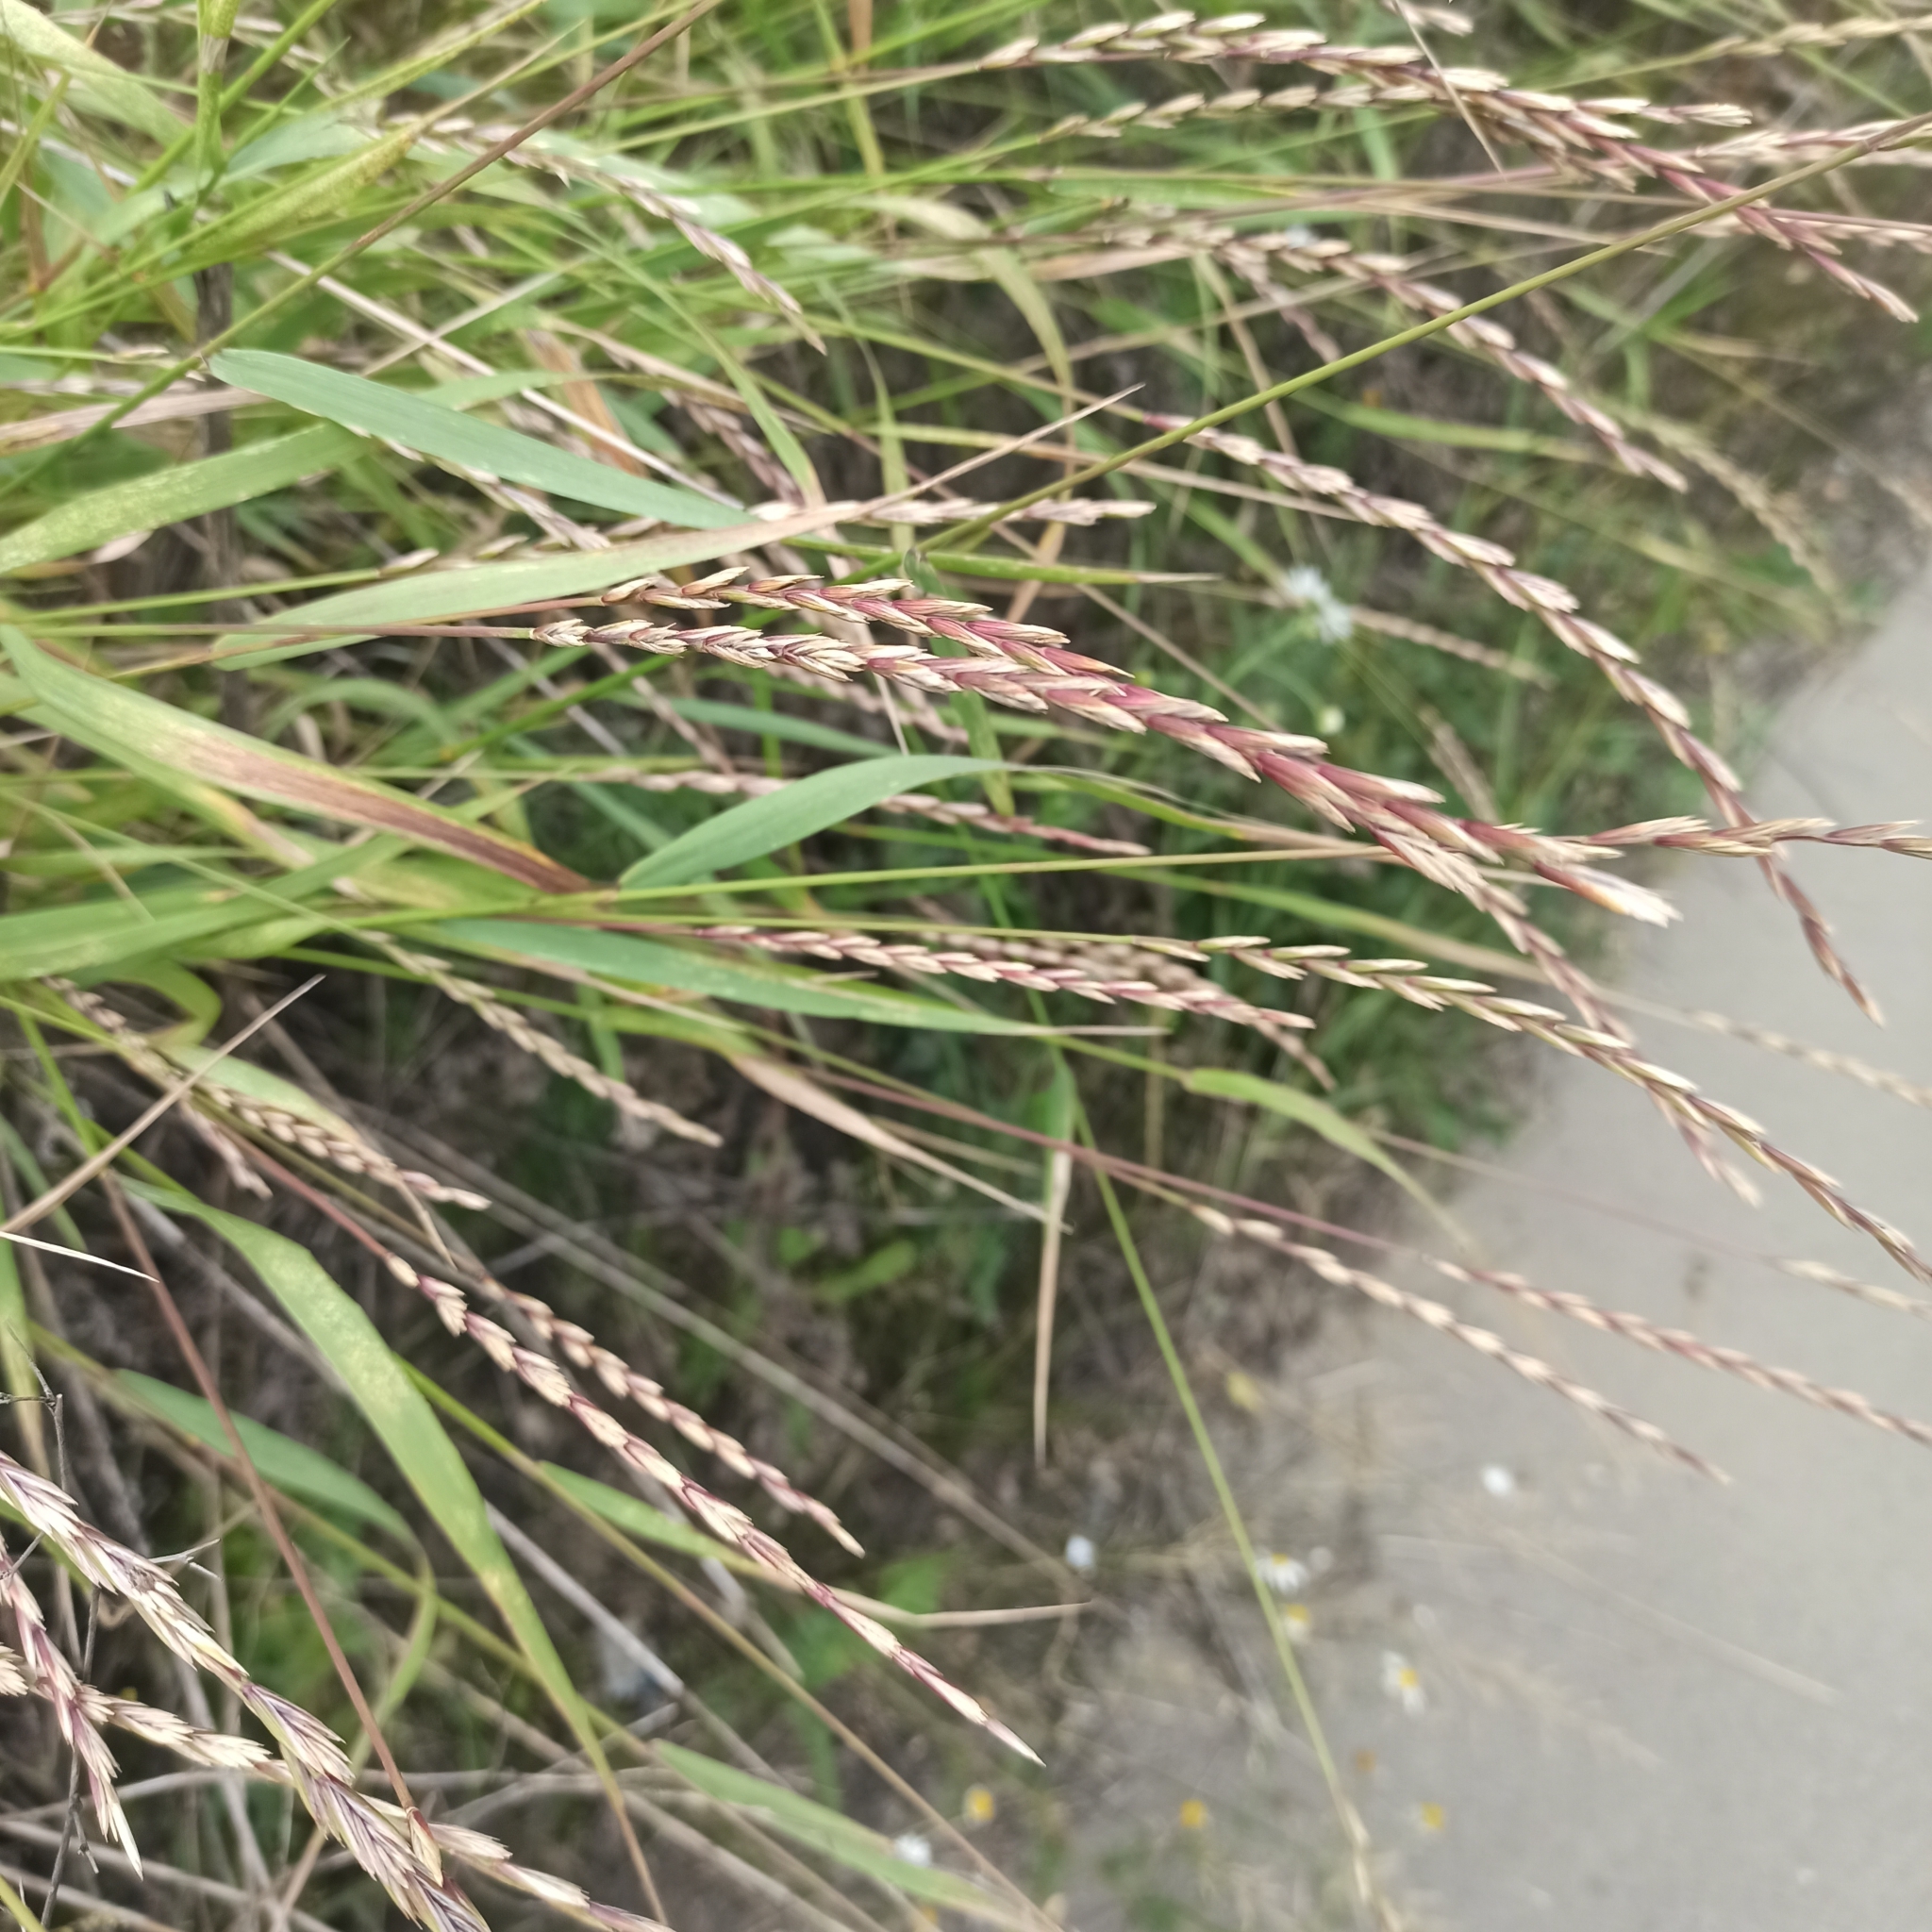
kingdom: Plantae
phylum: Tracheophyta
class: Liliopsida
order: Poales
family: Poaceae
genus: Elymus
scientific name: Elymus repens
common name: Quackgrass
